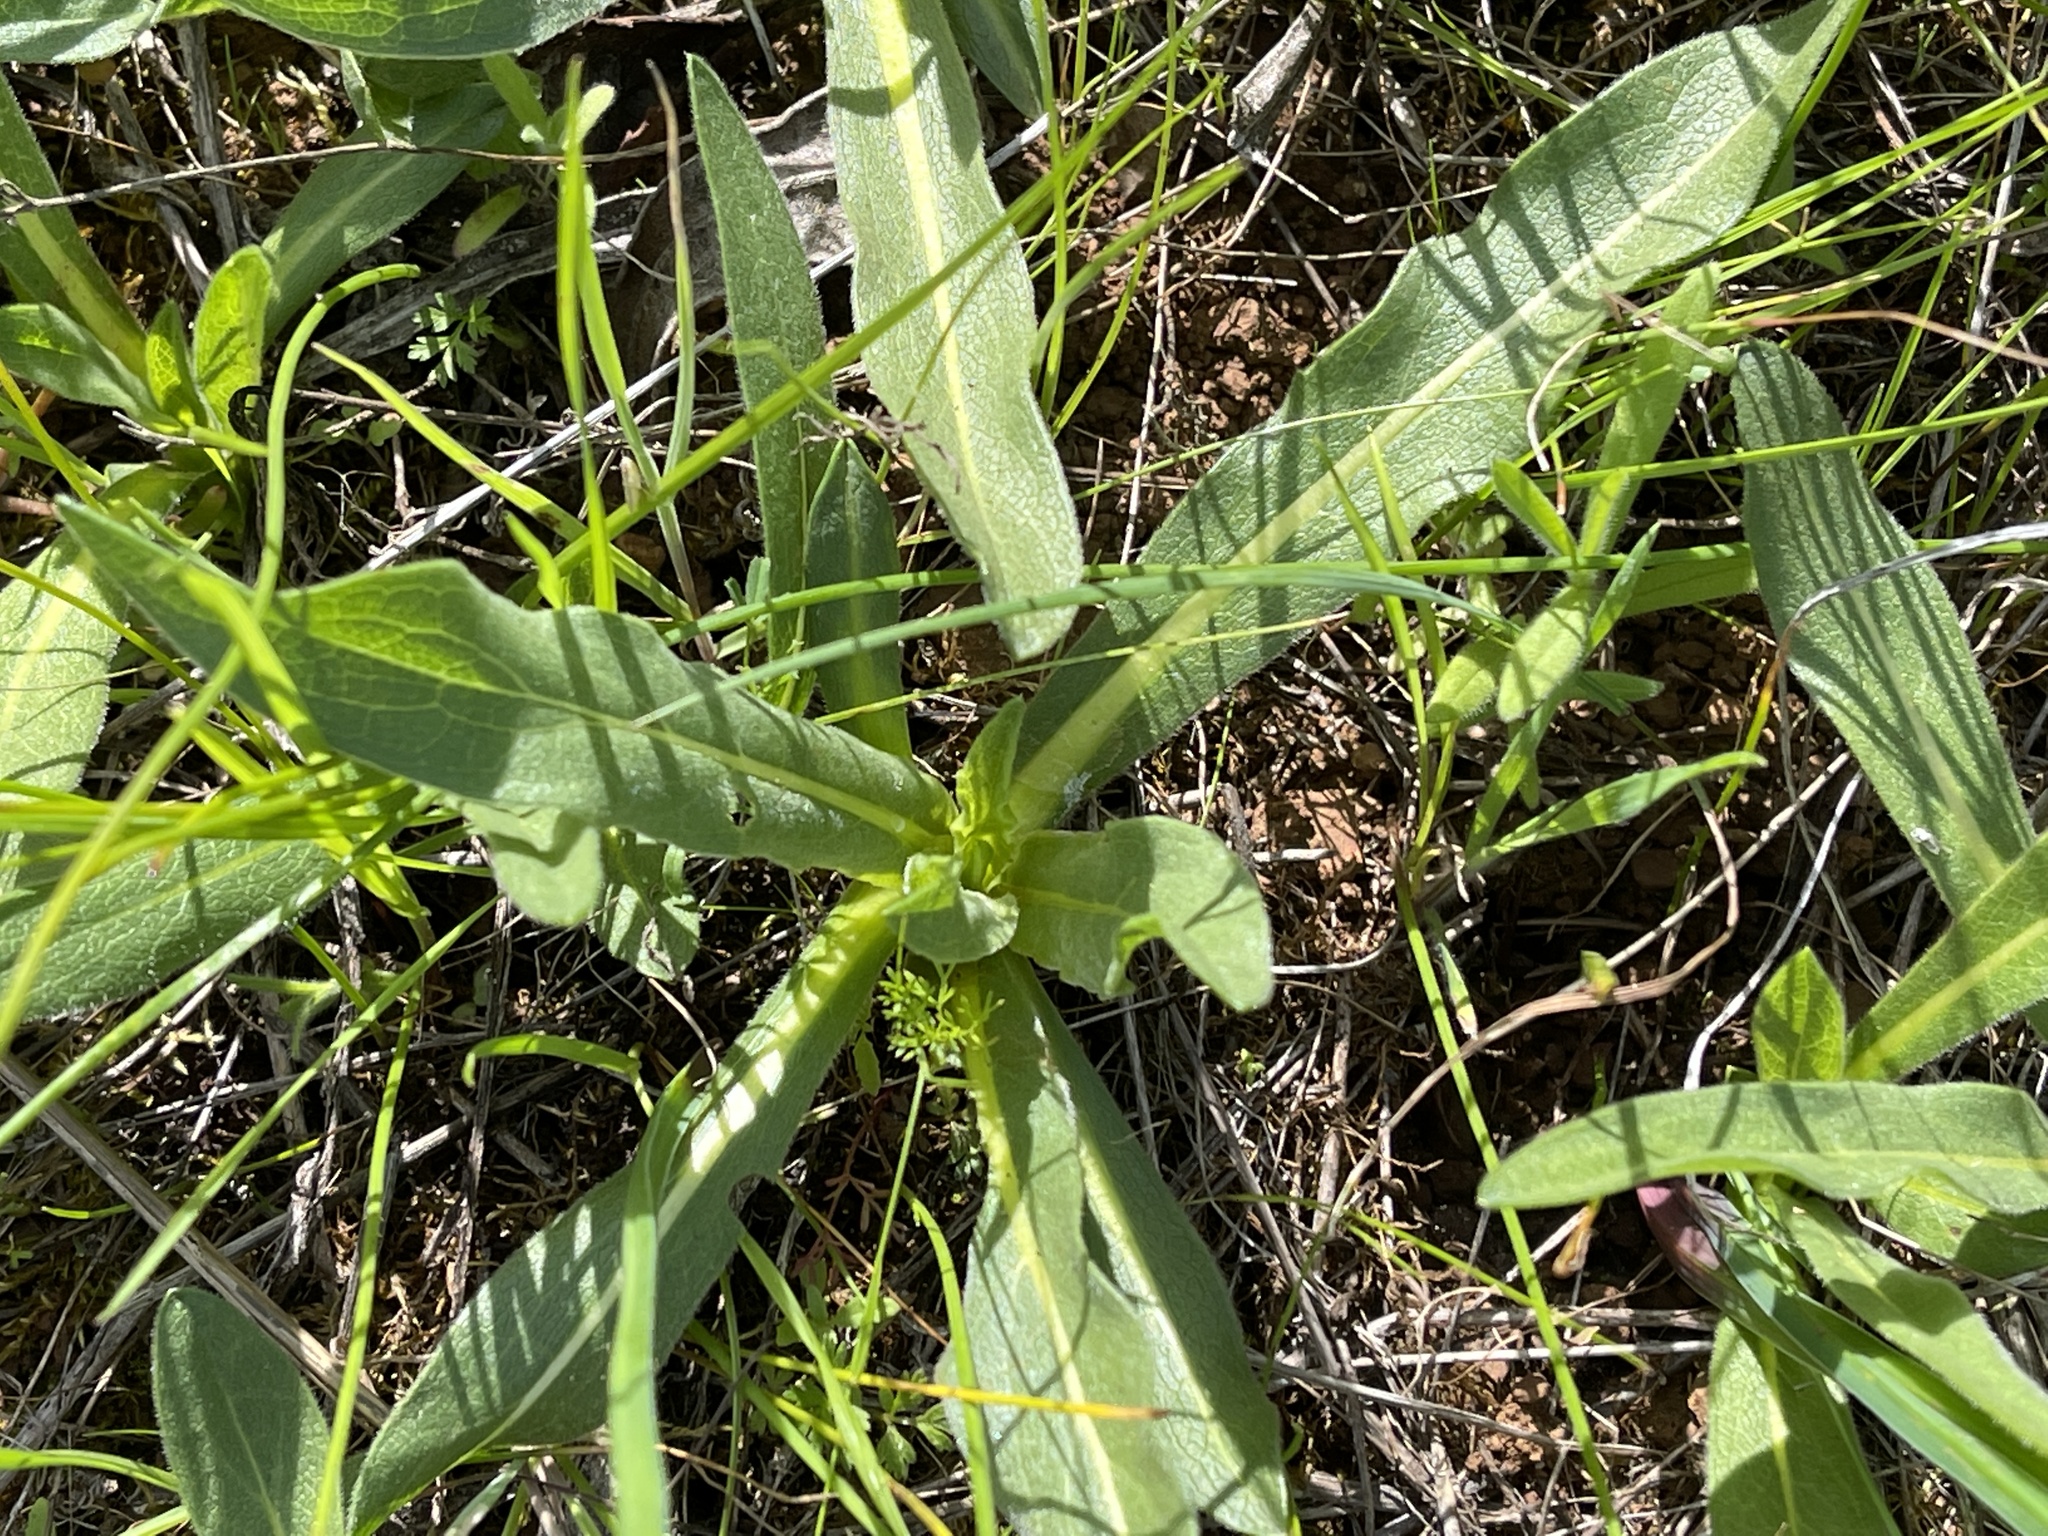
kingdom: Plantae
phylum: Tracheophyta
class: Magnoliopsida
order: Asterales
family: Asteraceae
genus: Wyethia
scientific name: Wyethia angustifolia
